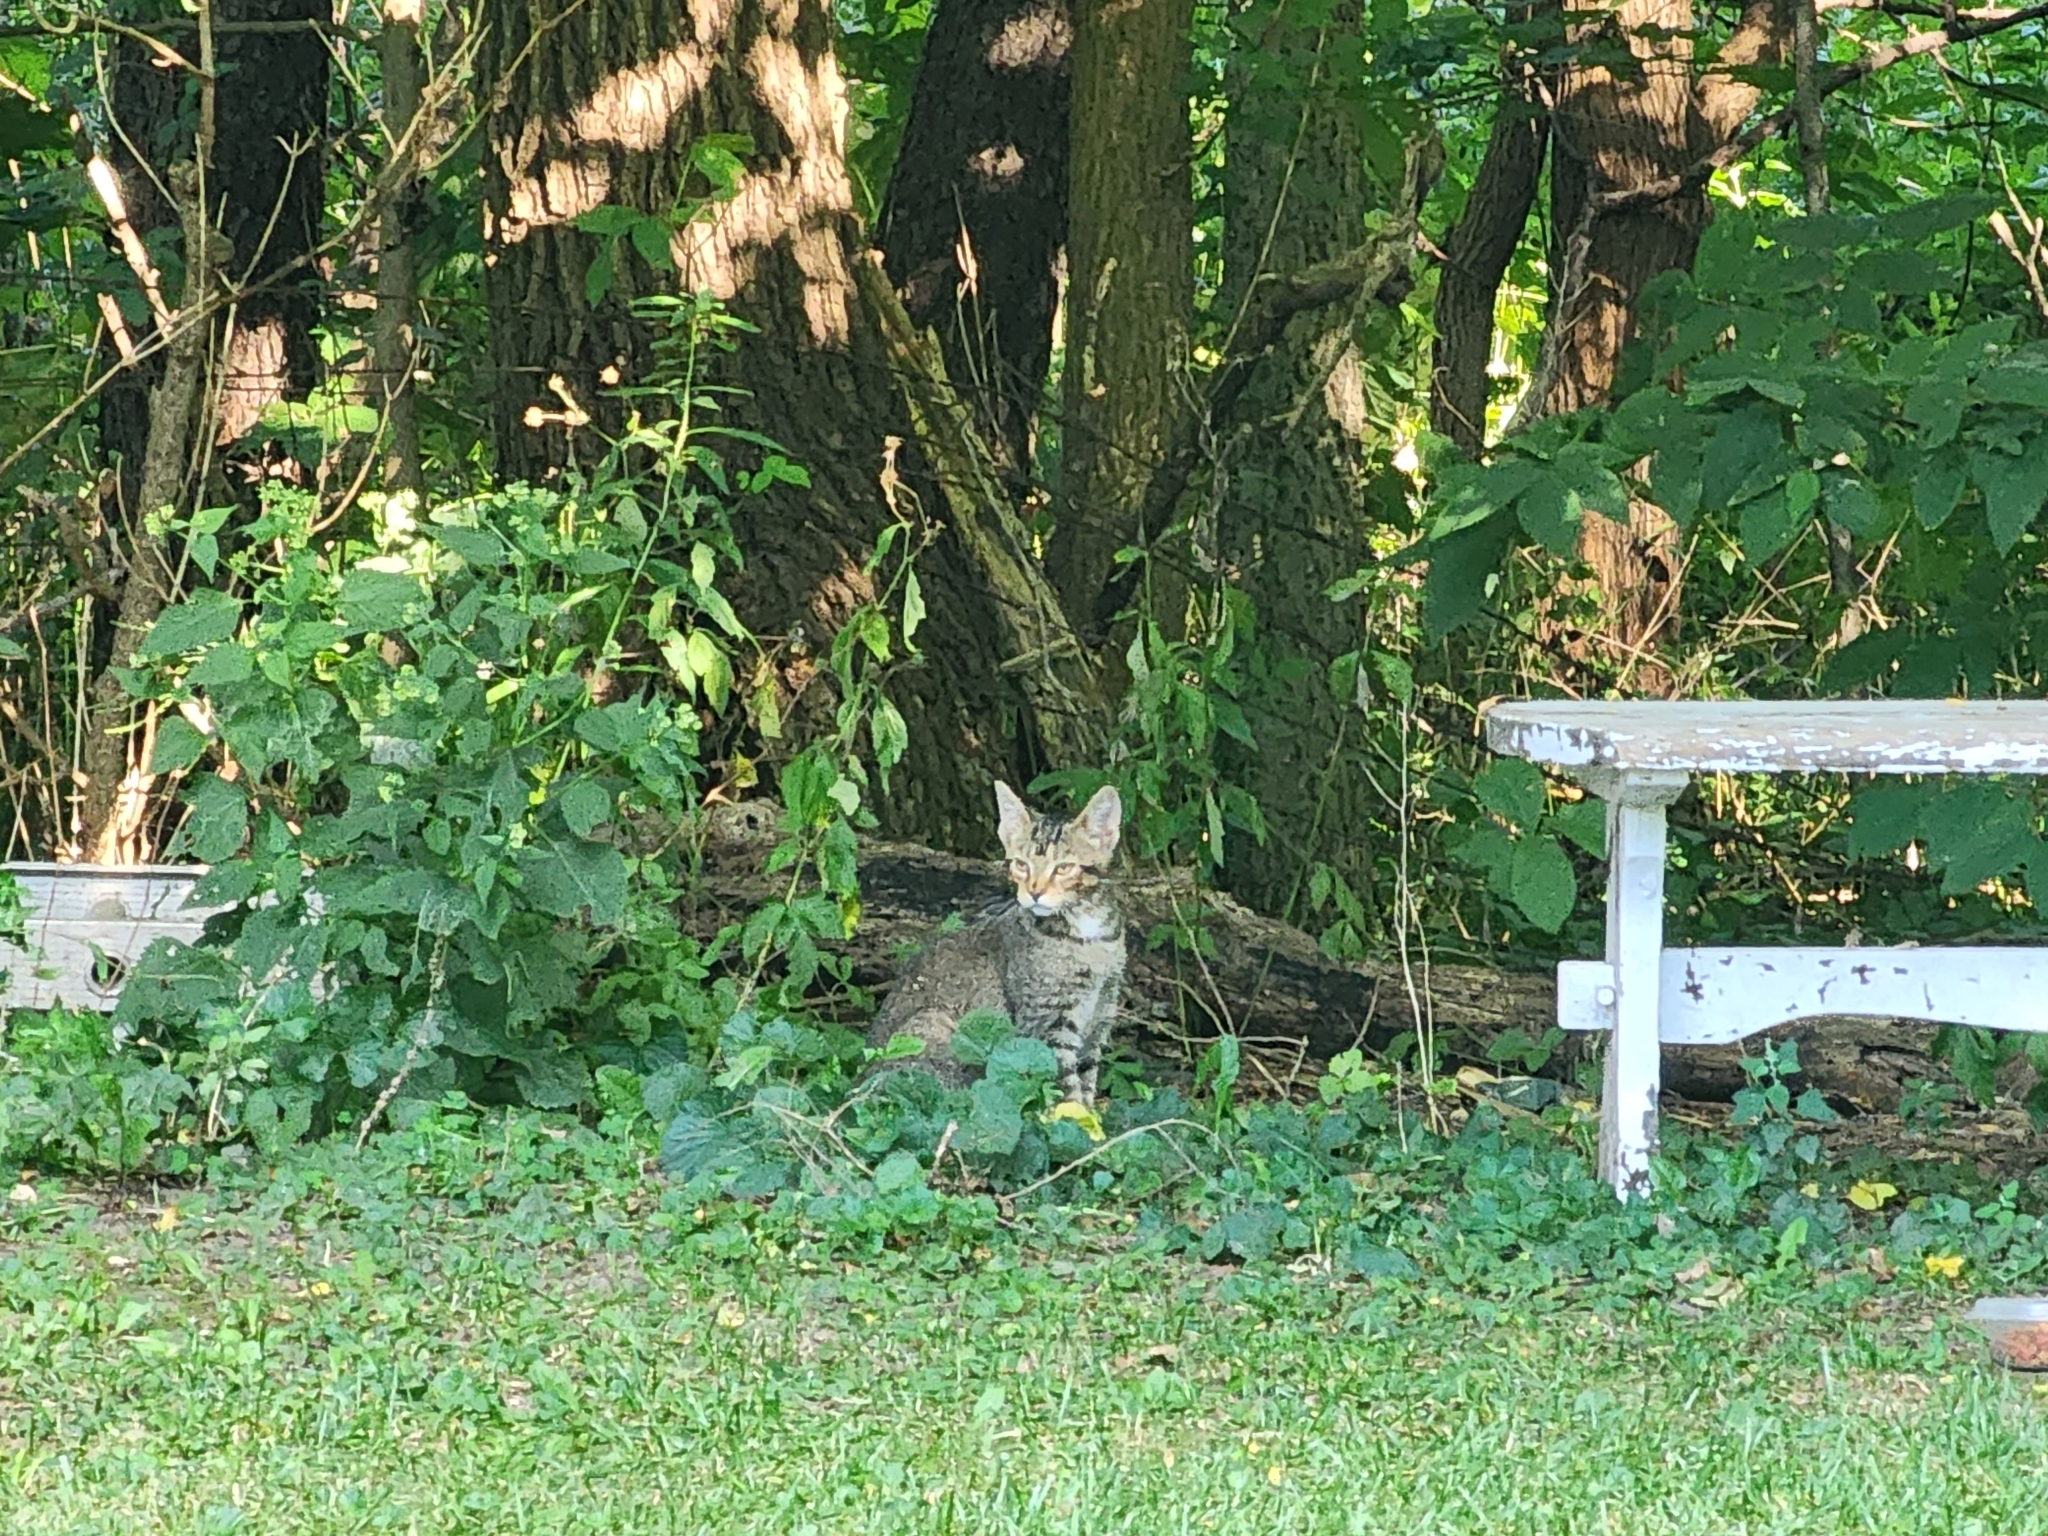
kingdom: Animalia
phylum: Chordata
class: Mammalia
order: Carnivora
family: Felidae
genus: Felis
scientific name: Felis catus
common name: Domestic cat
